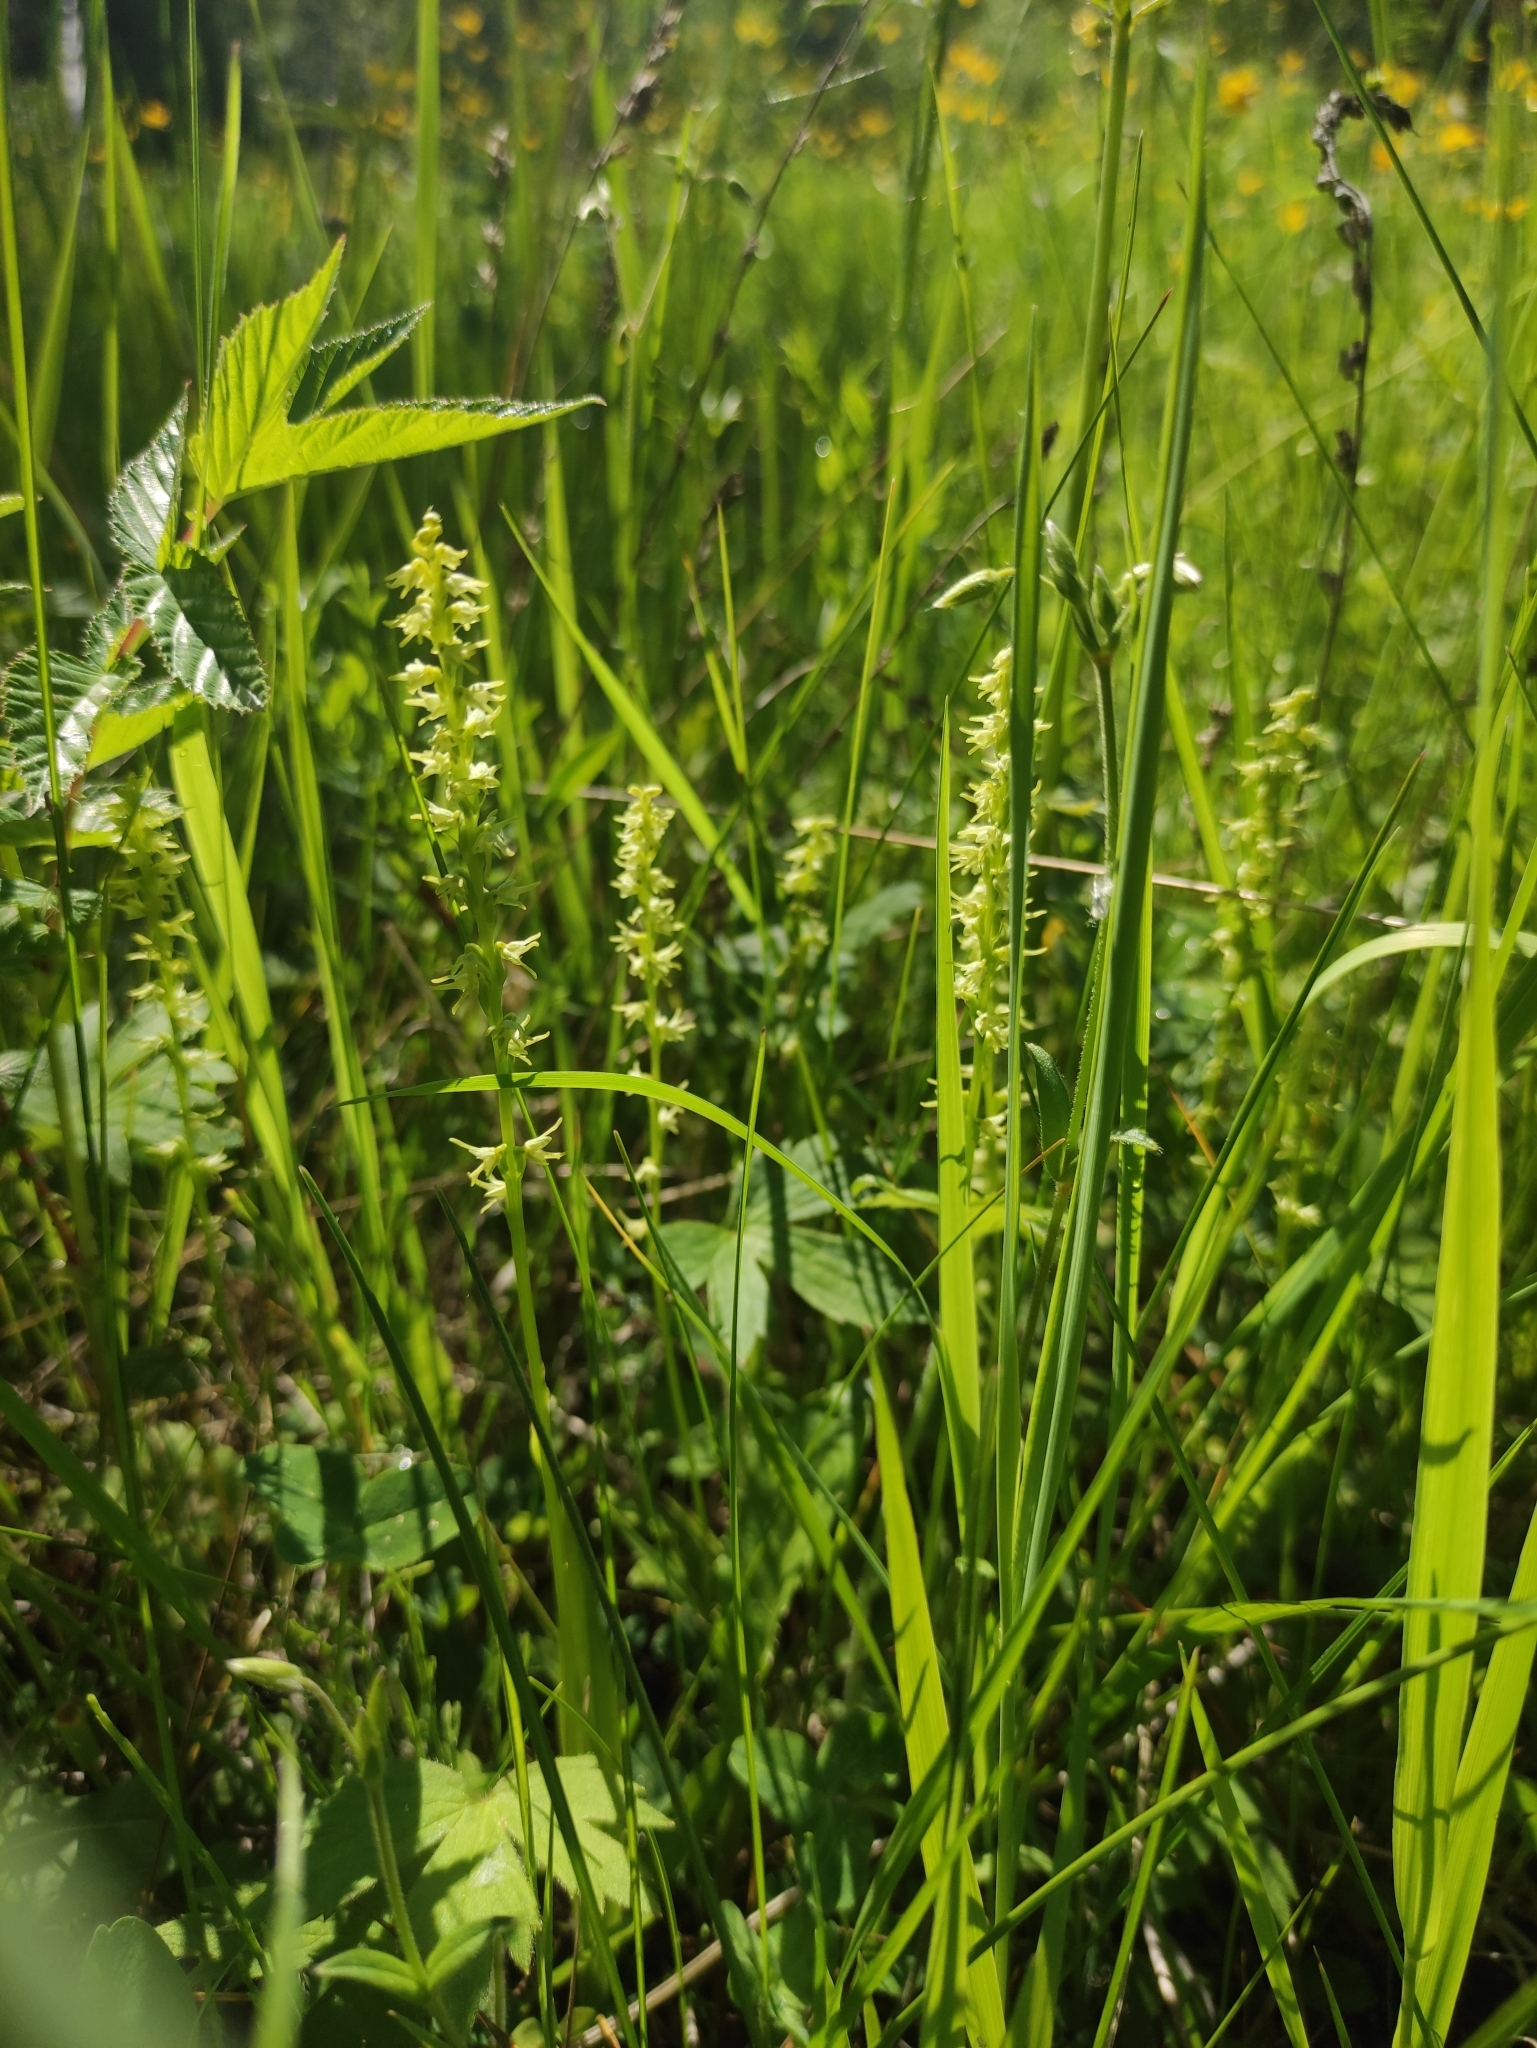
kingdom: Plantae
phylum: Tracheophyta
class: Liliopsida
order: Asparagales
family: Orchidaceae
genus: Herminium
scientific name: Herminium monorchis
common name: Musk orchid
